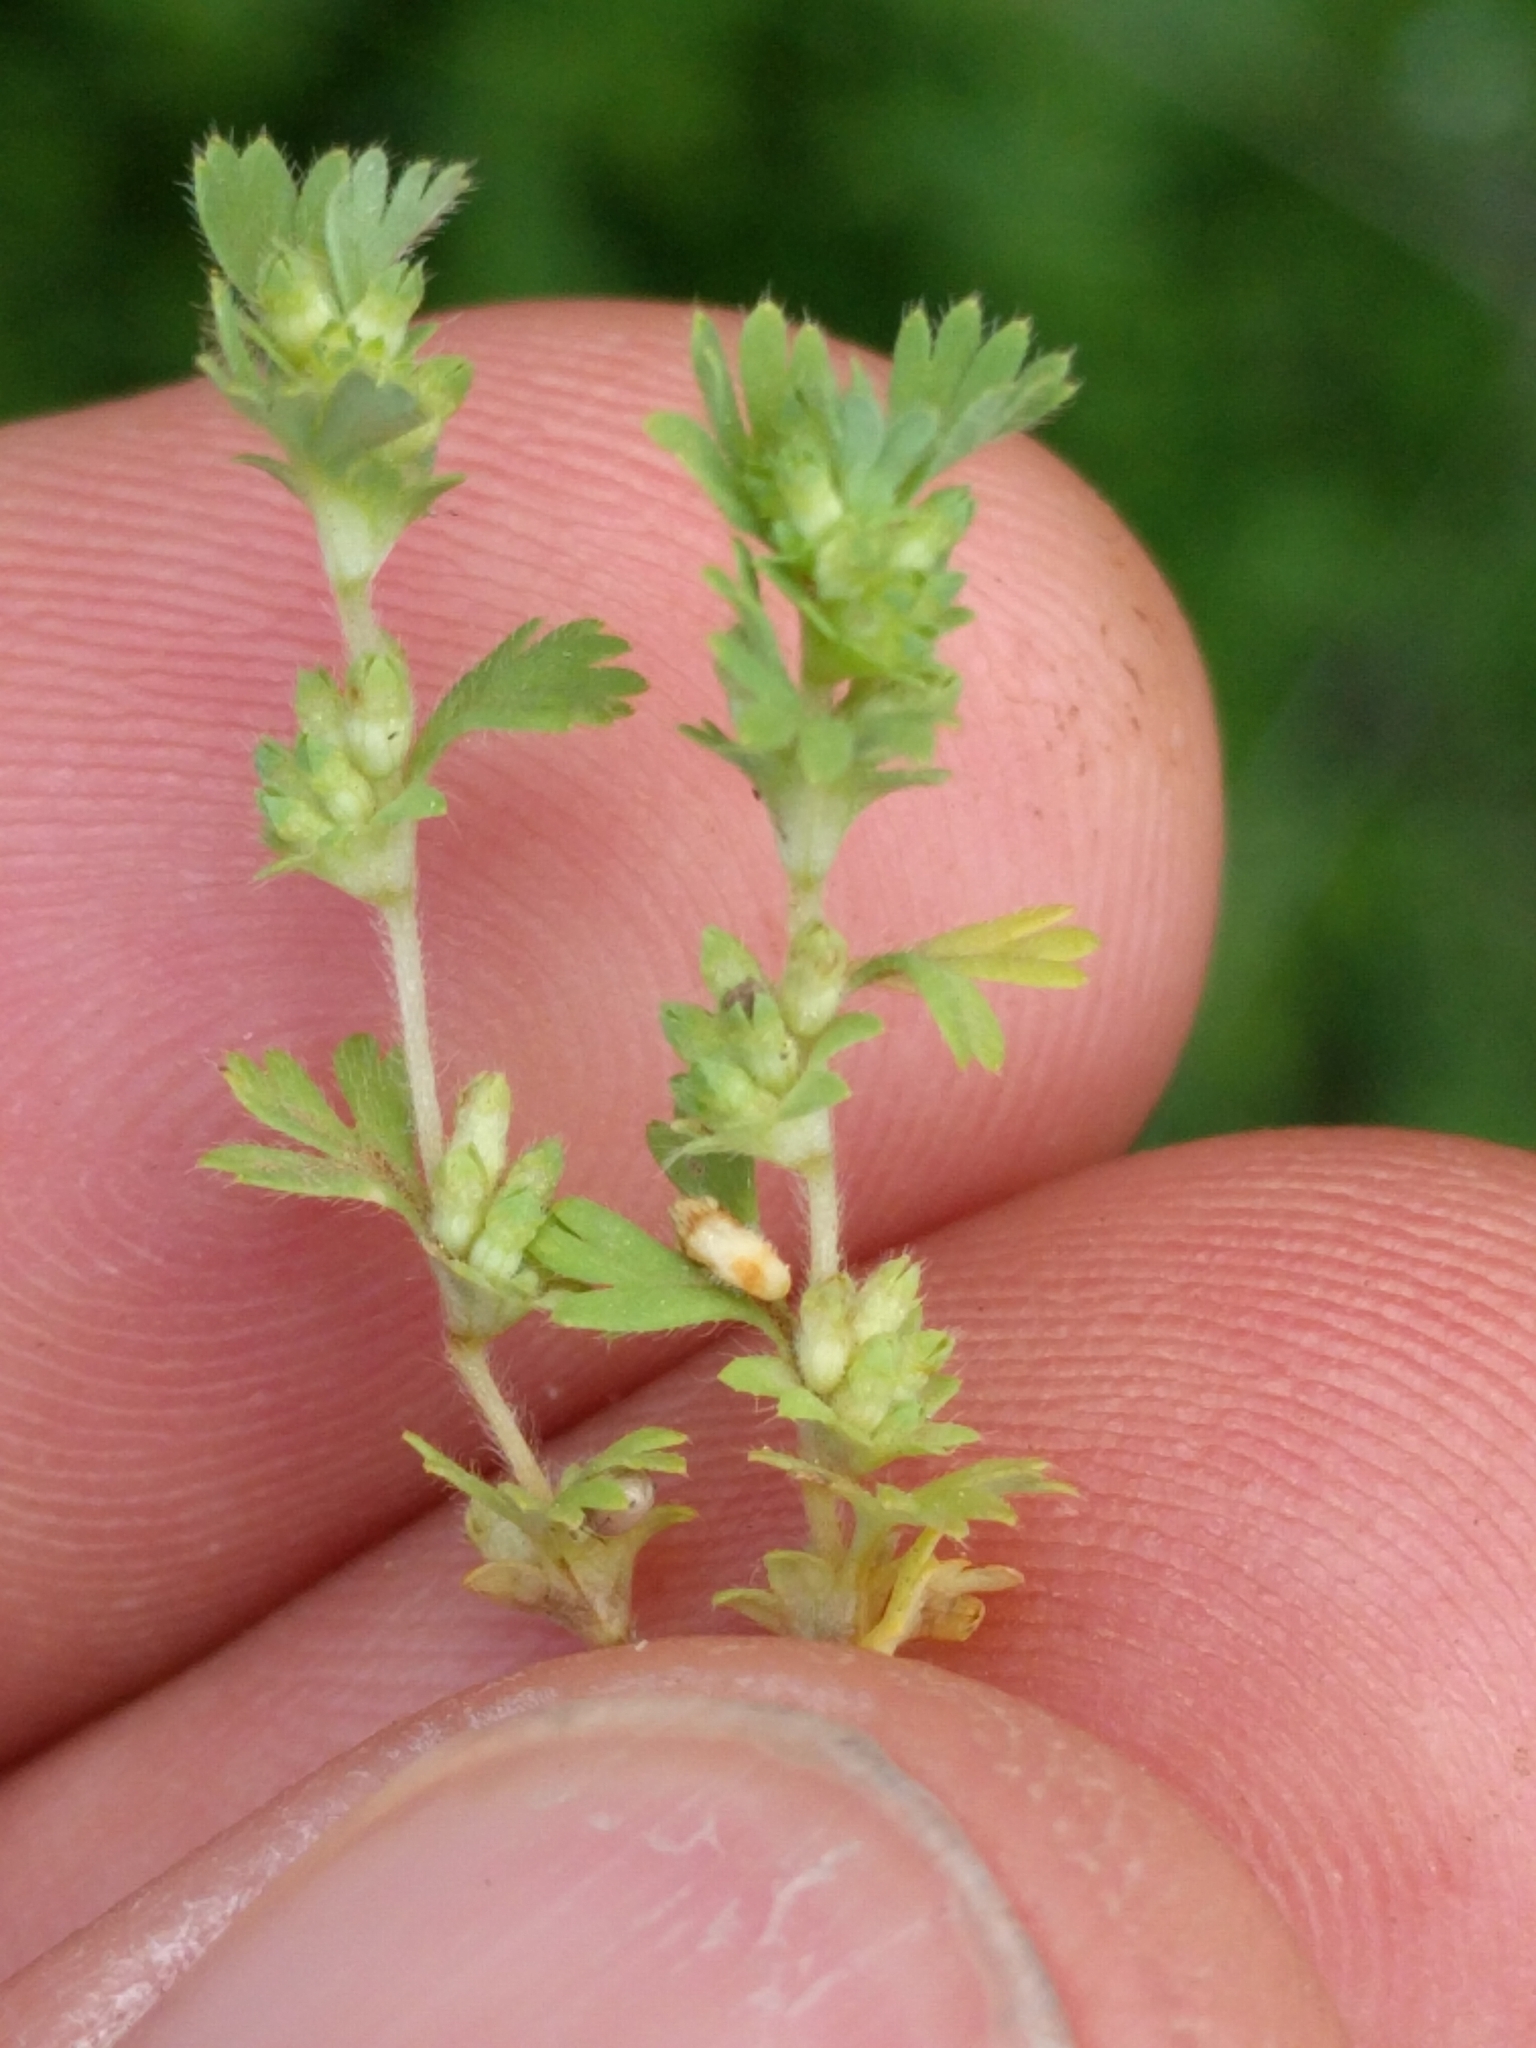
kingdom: Plantae
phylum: Tracheophyta
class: Magnoliopsida
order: Rosales
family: Rosaceae
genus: Aphanes
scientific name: Aphanes arvensis
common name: Parsley-piert
